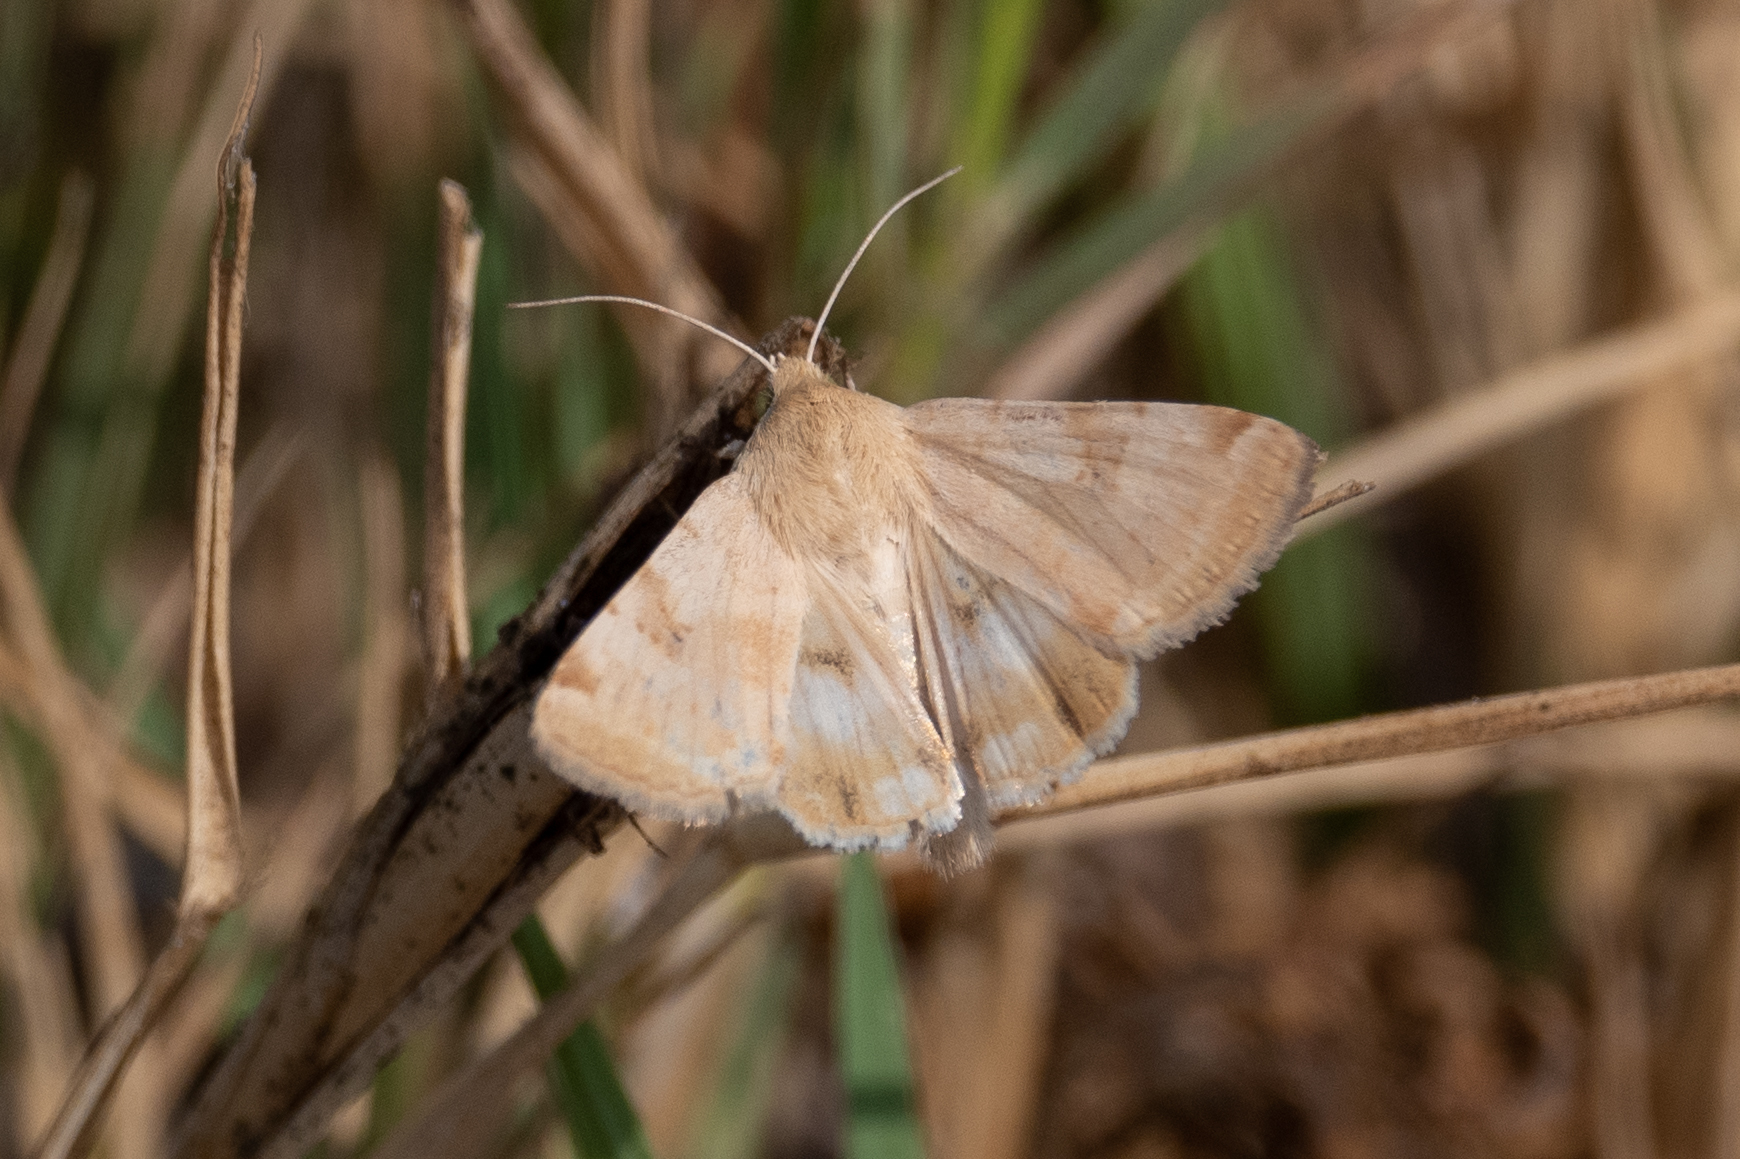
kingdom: Animalia
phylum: Arthropoda
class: Insecta
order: Lepidoptera
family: Noctuidae
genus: Heliothis
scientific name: Heliothis phloxiphaga
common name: Darker spotted straw moth
